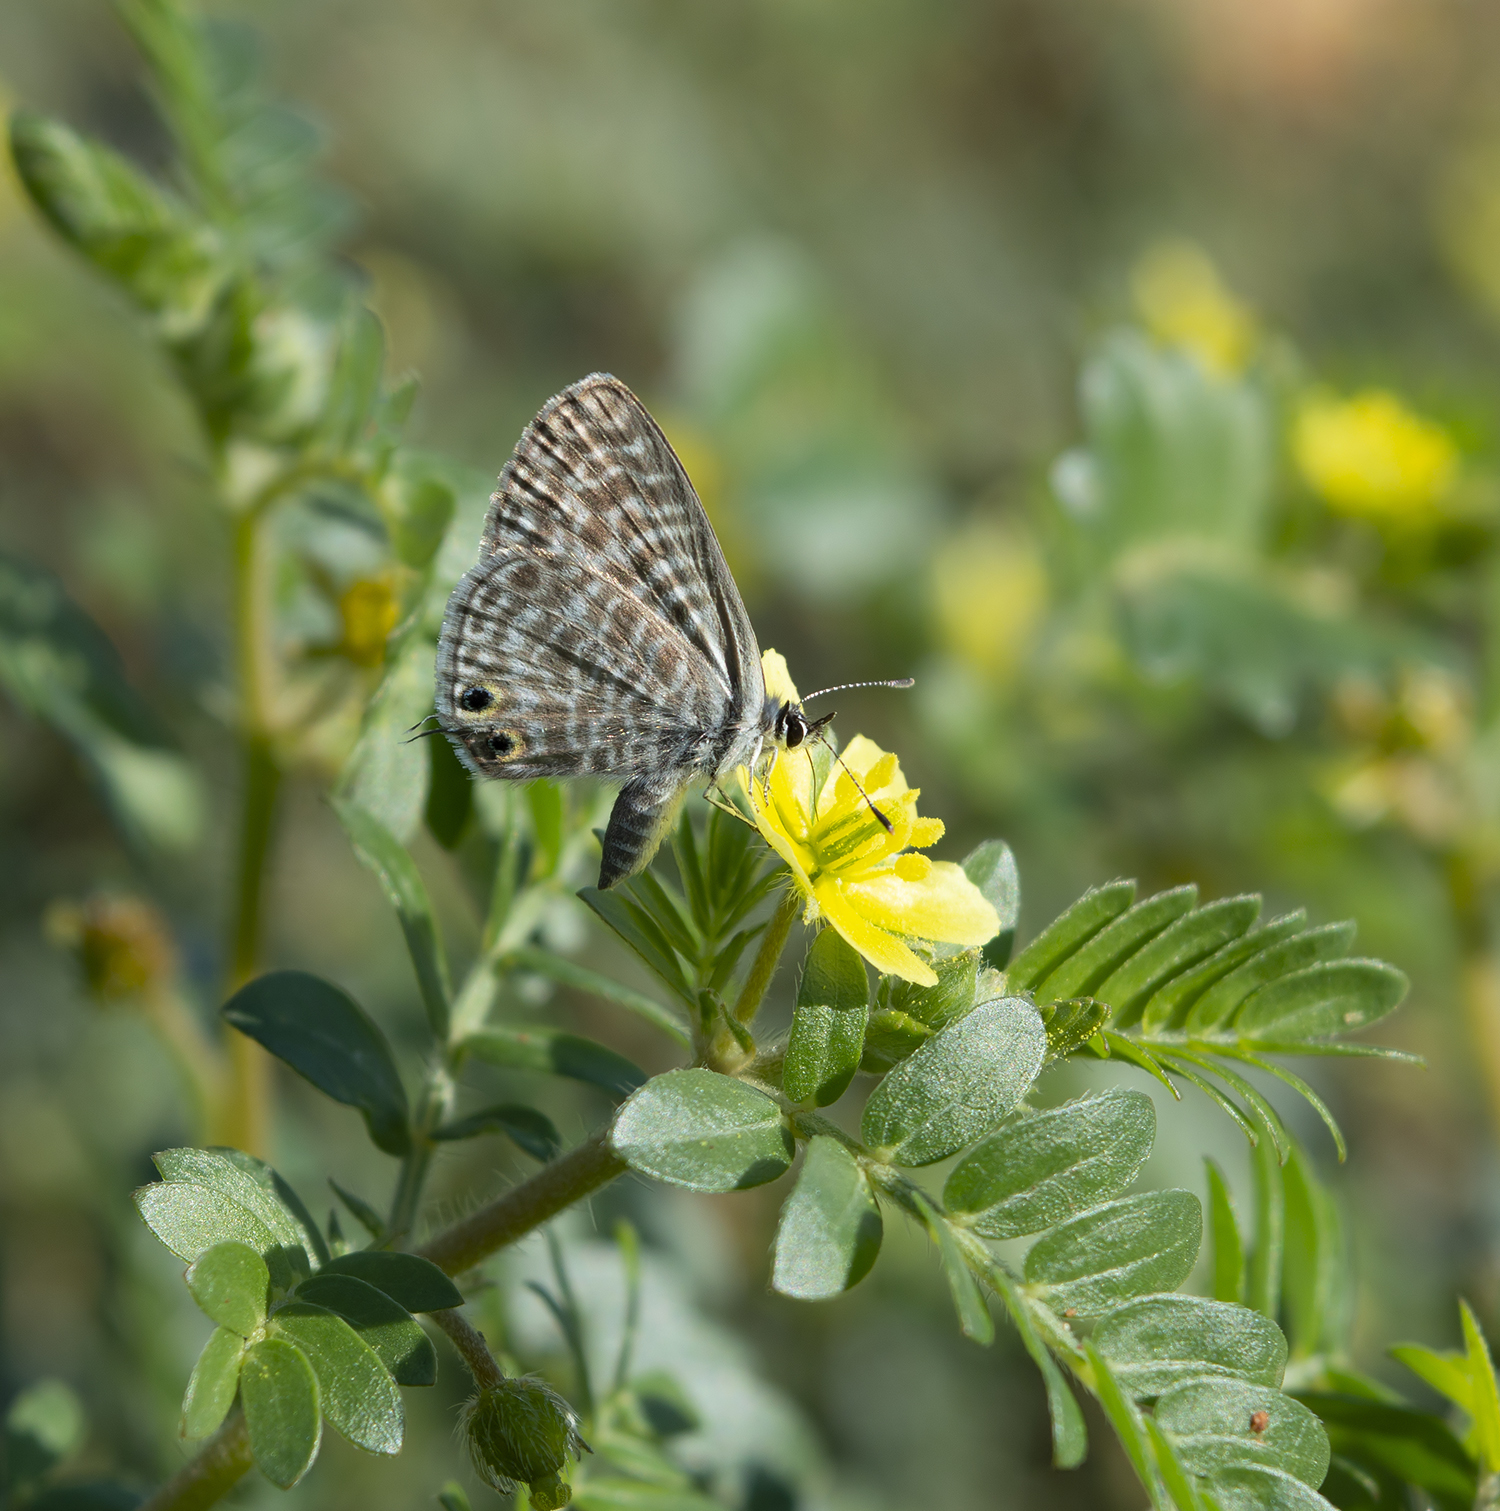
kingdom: Animalia
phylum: Arthropoda
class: Insecta
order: Lepidoptera
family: Lycaenidae
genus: Leptotes
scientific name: Leptotes pirithous
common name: Lang's short-tailed blue
